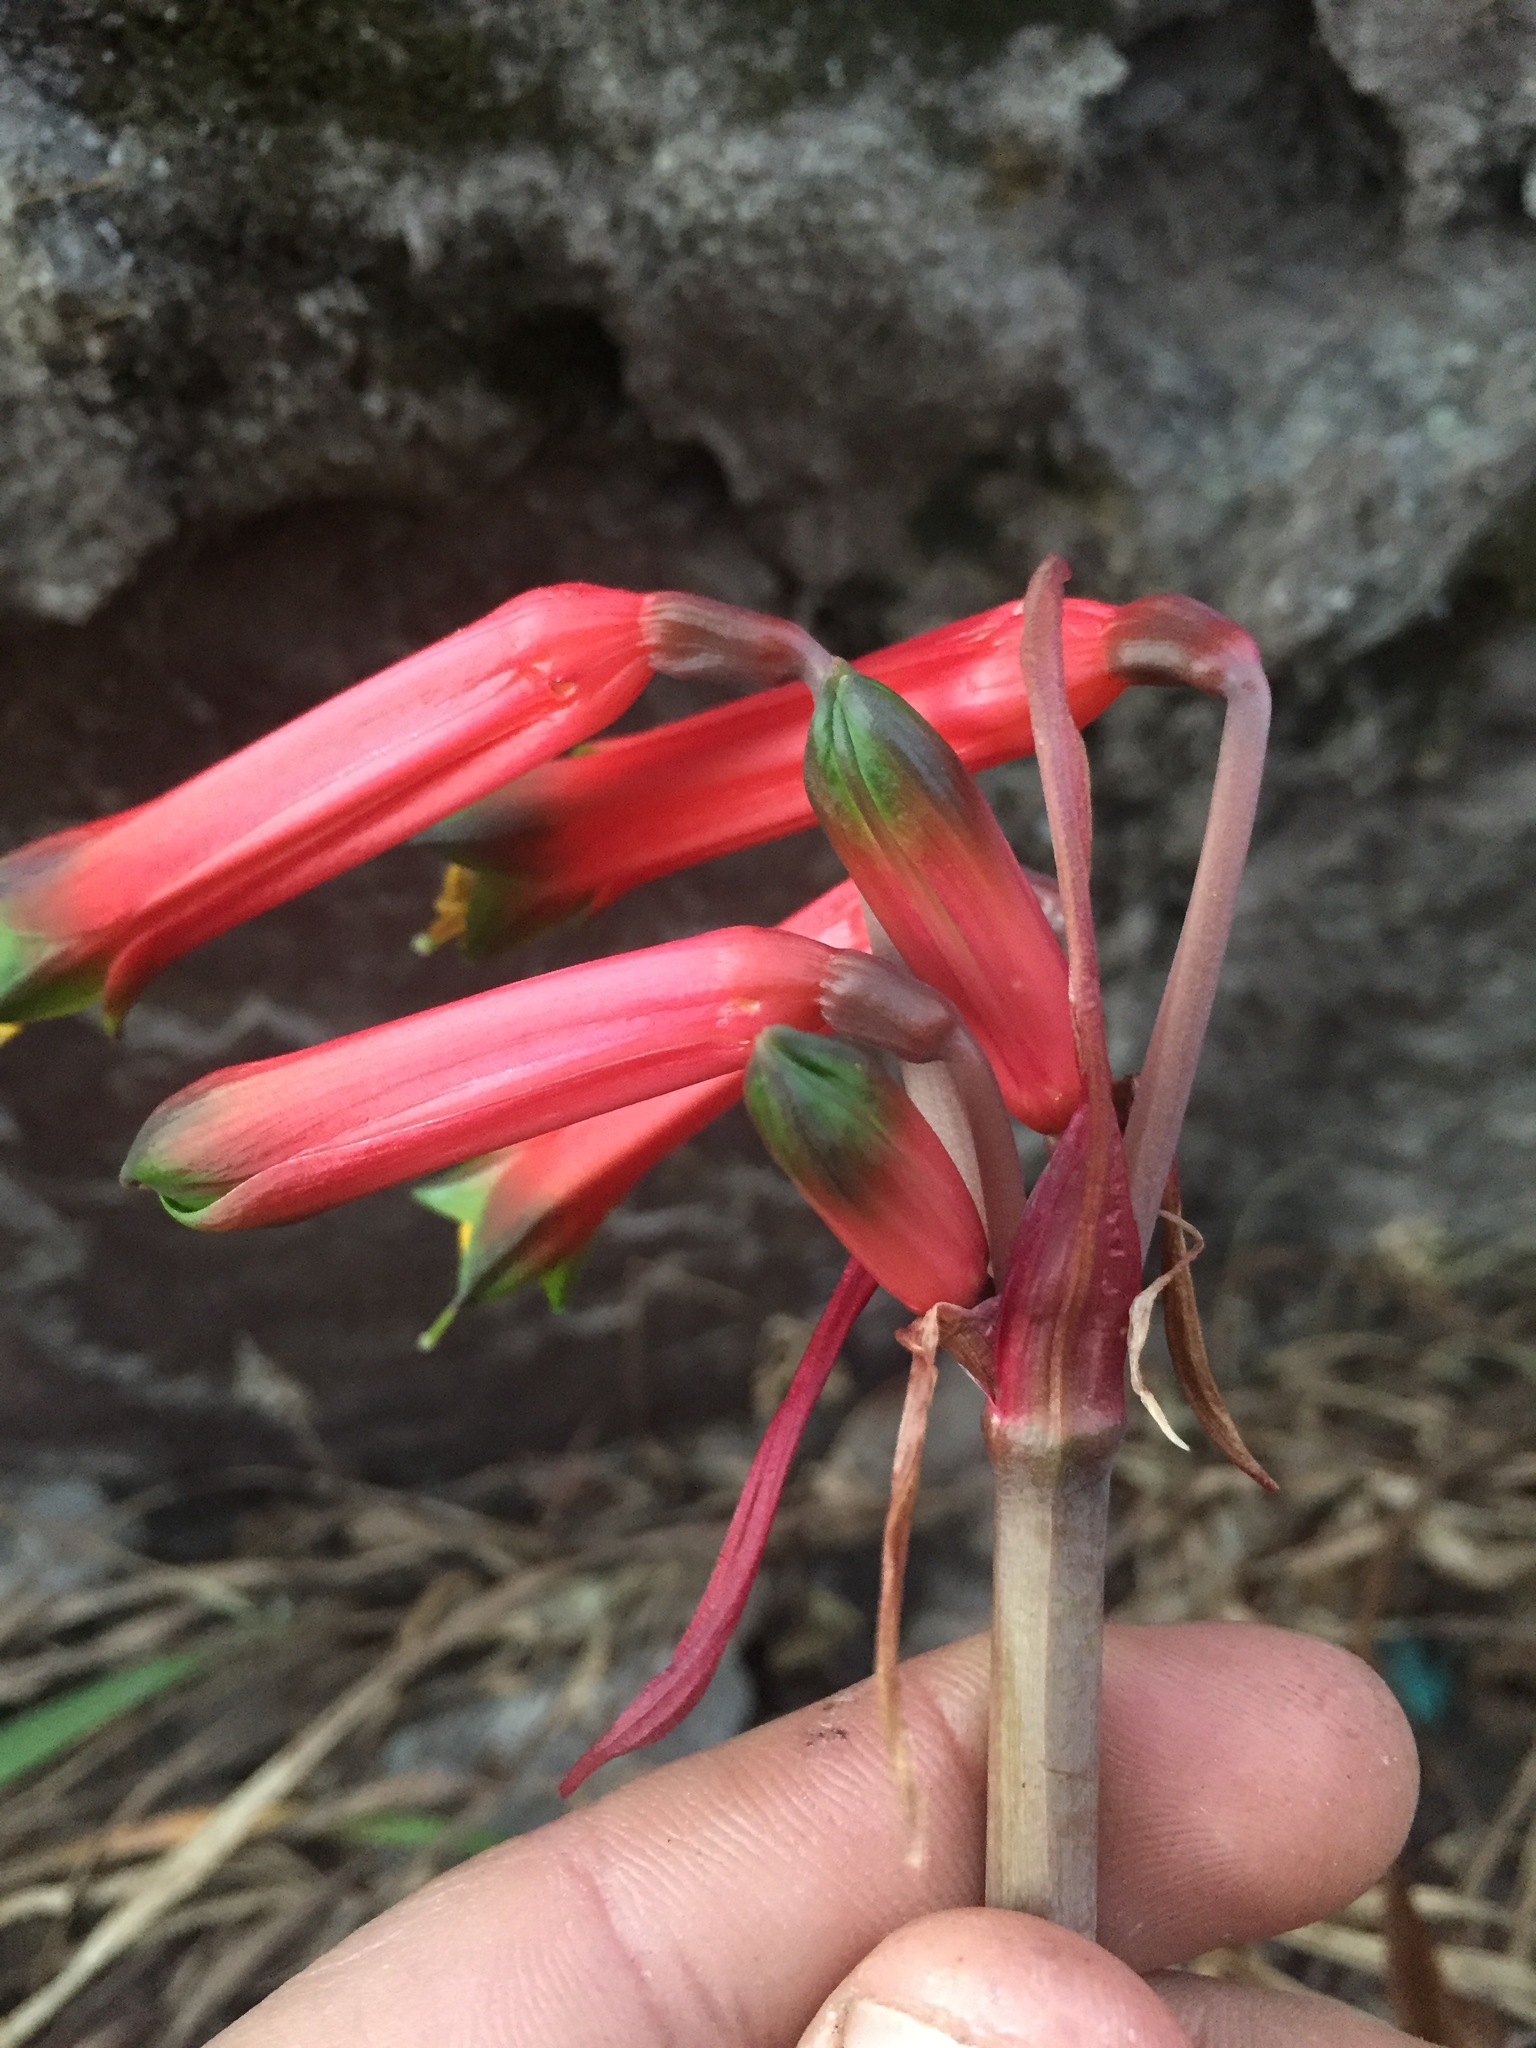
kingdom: Plantae
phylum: Tracheophyta
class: Liliopsida
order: Asparagales
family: Amaryllidaceae
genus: Eustephia
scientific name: Eustephia darwinii
